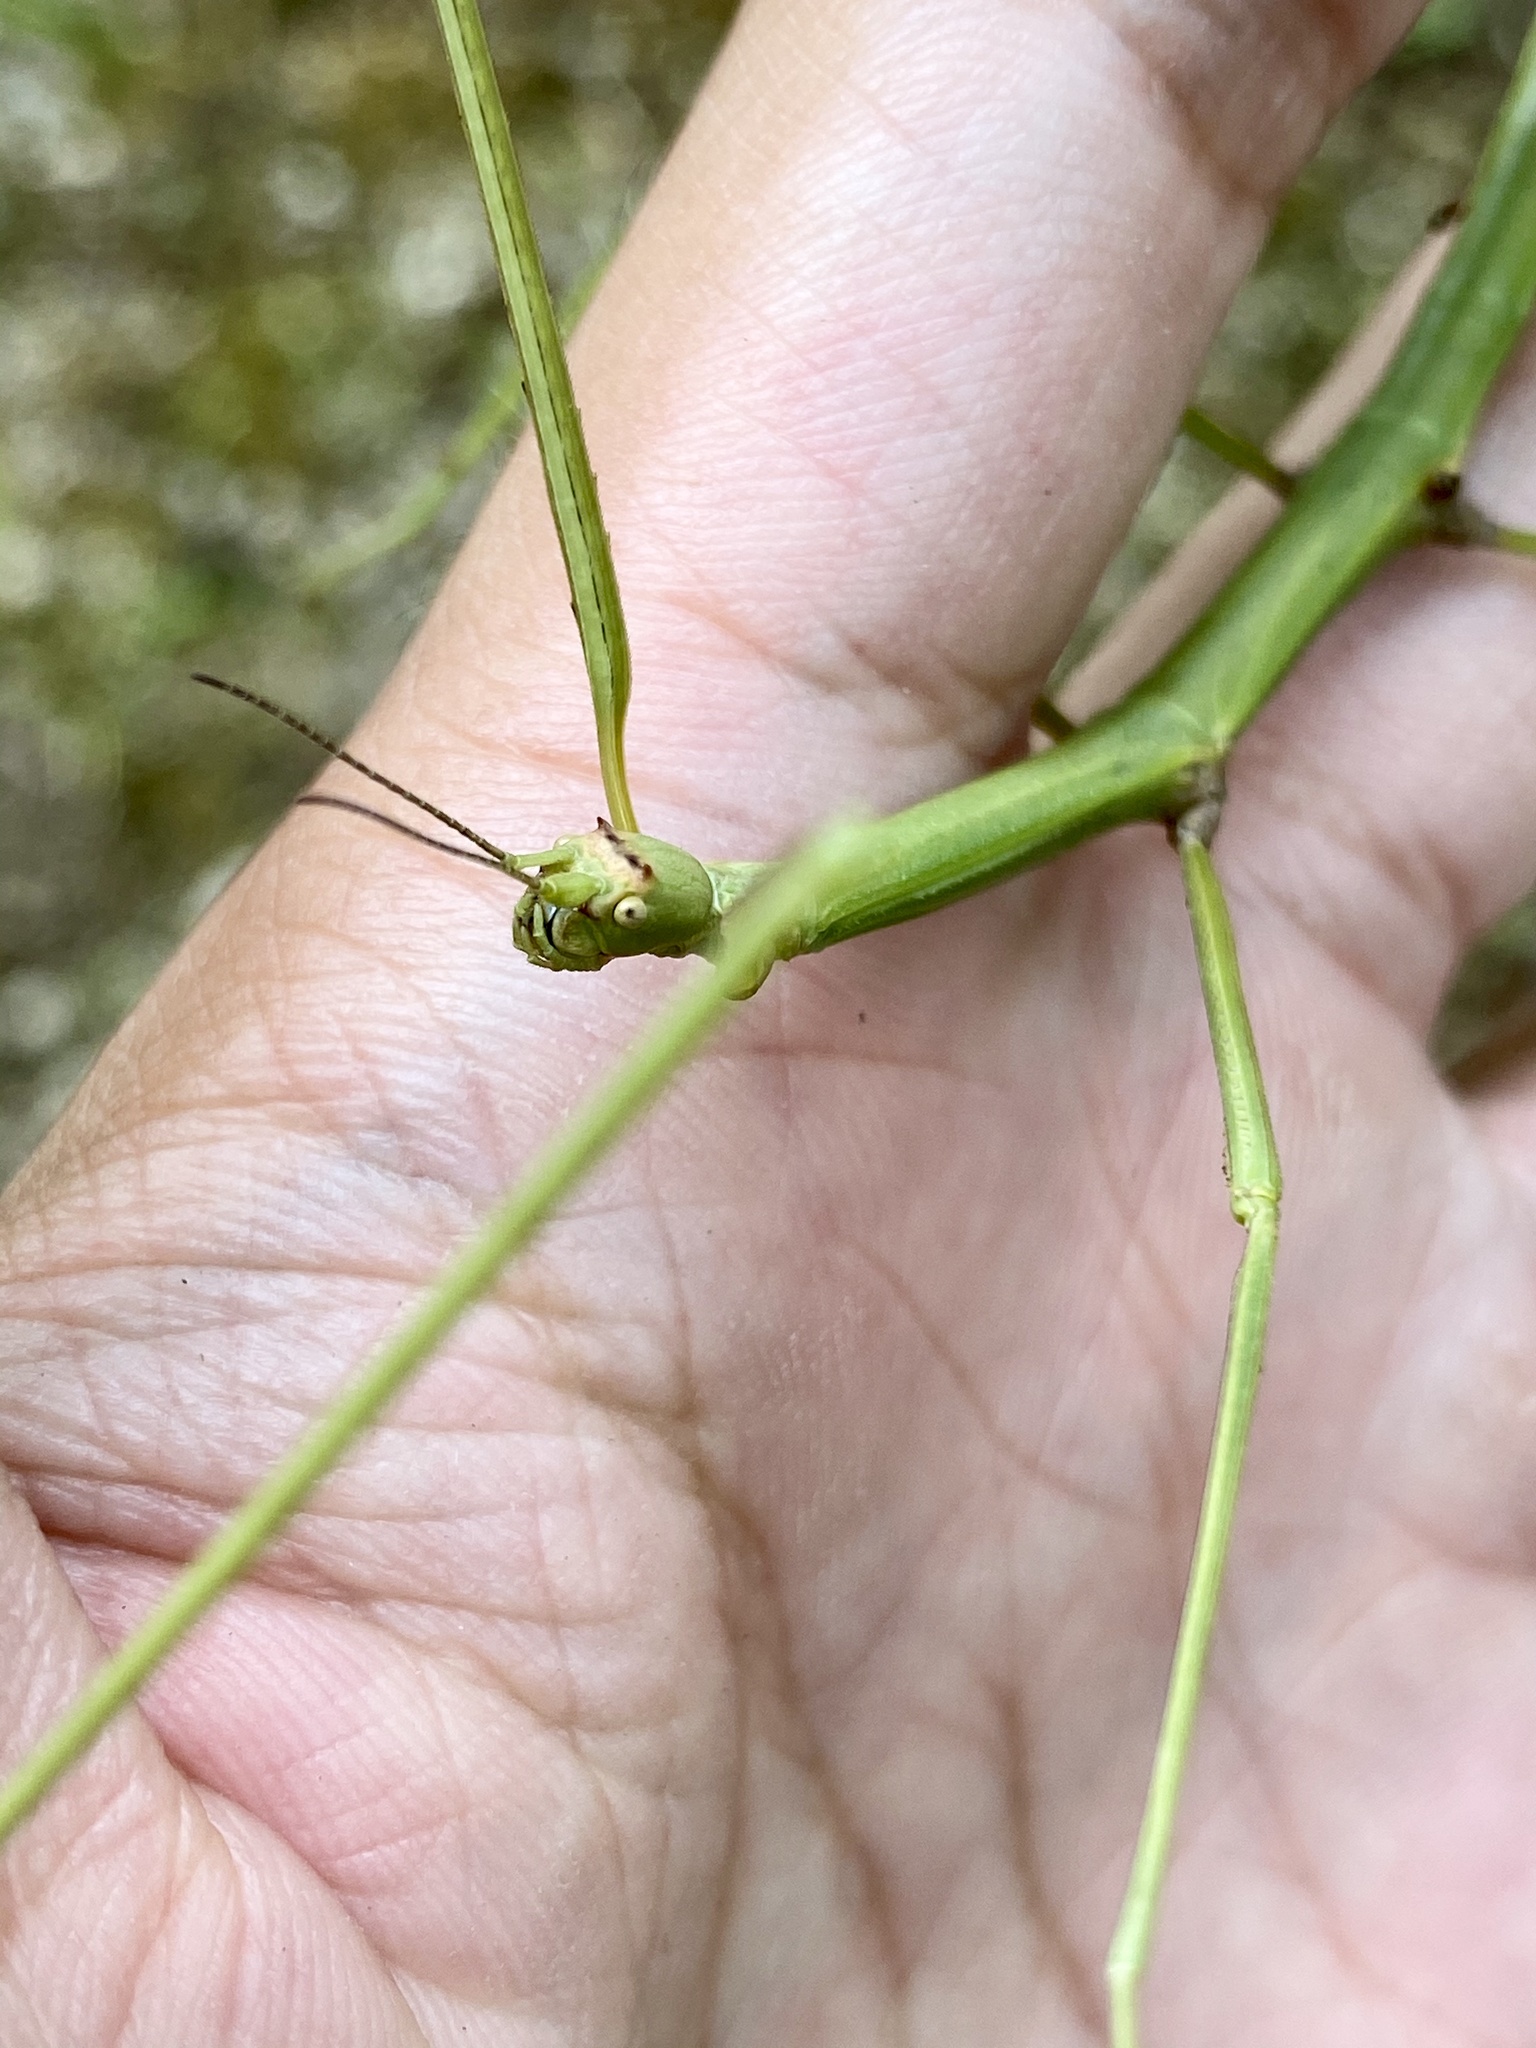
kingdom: Animalia
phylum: Arthropoda
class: Insecta
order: Phasmida
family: Phasmatidae
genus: Ramulus
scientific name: Ramulus mikado
